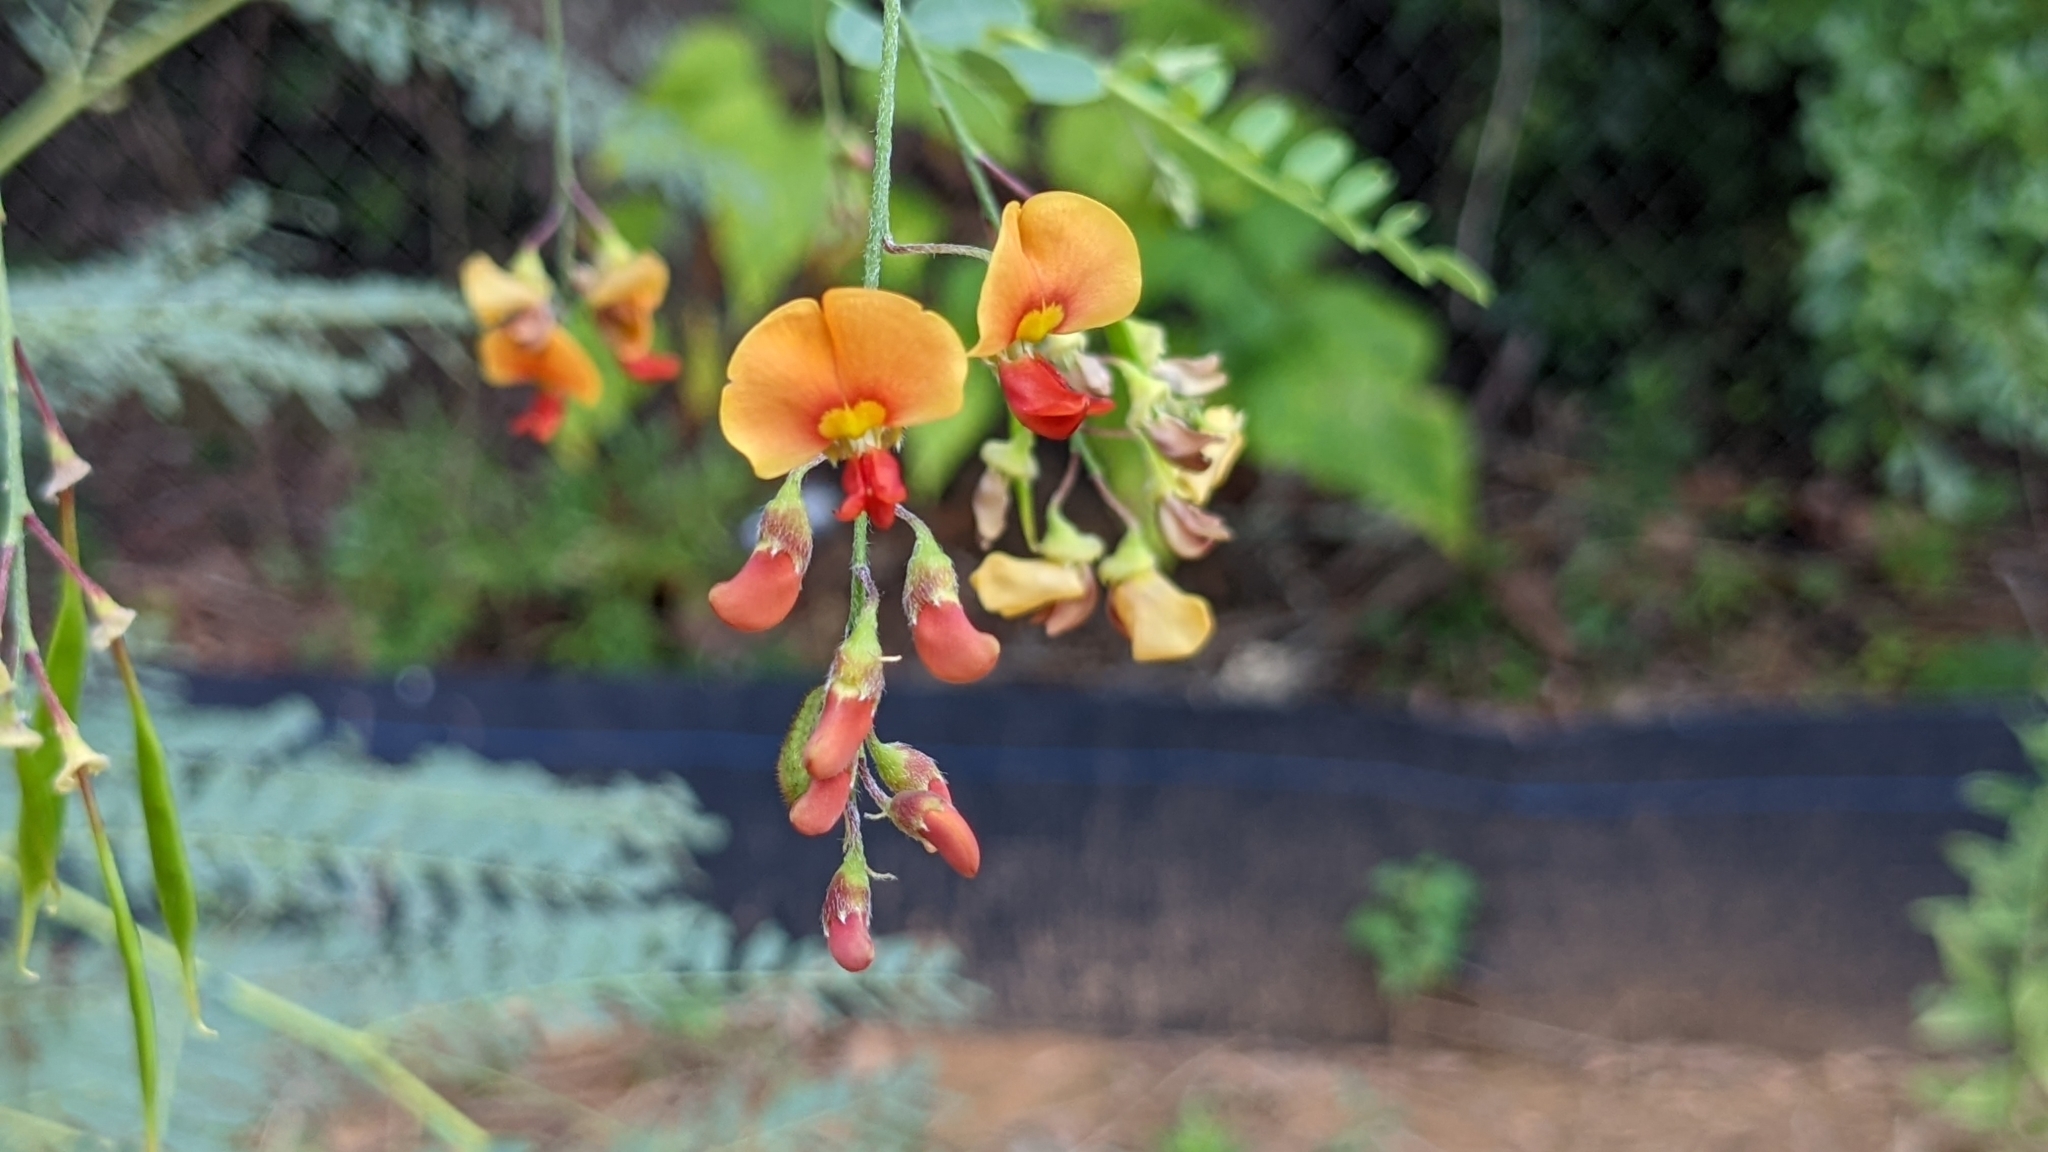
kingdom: Plantae
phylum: Tracheophyta
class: Magnoliopsida
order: Fabales
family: Fabaceae
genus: Sesbania
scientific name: Sesbania vesicaria
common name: Bagpod
